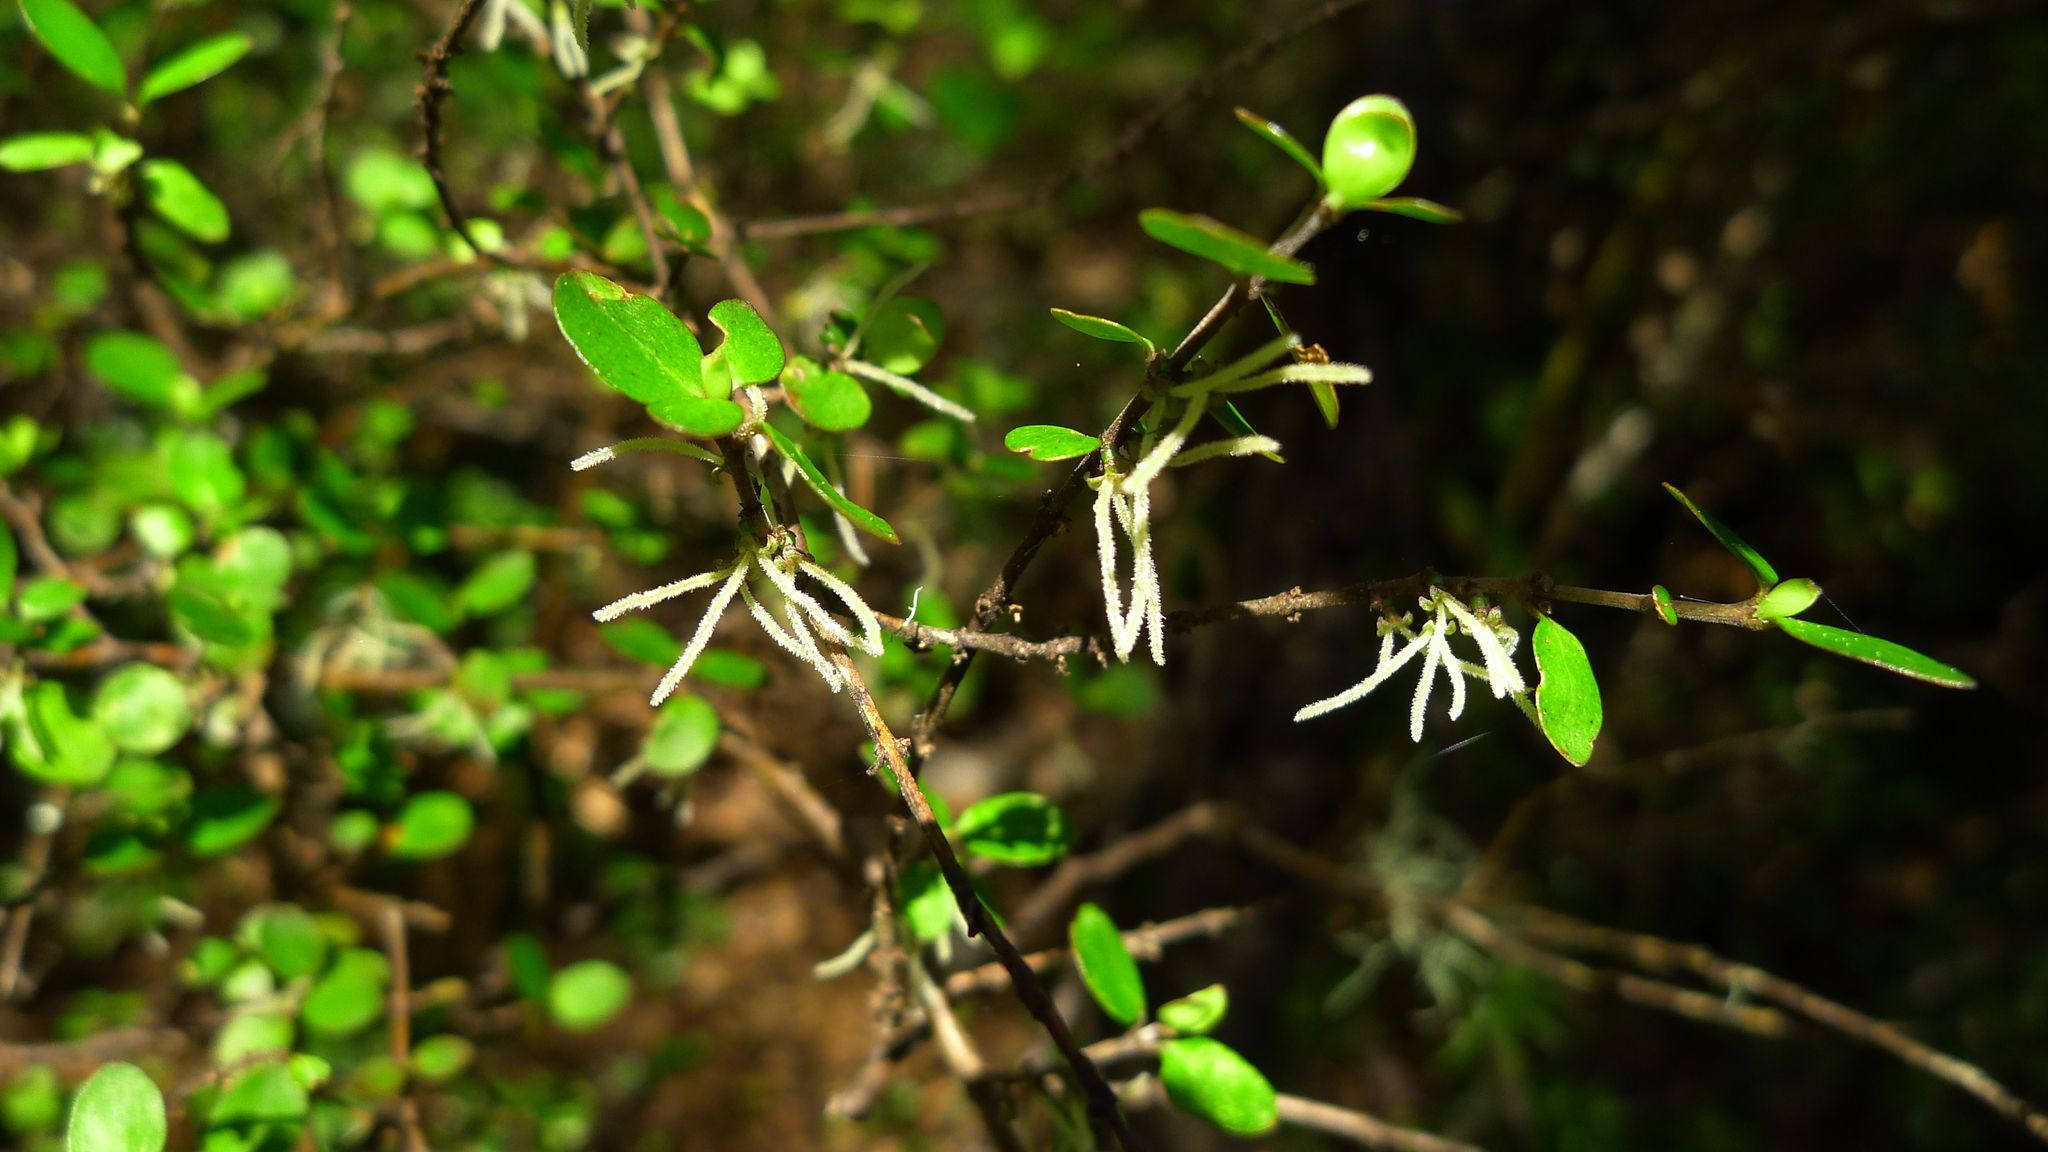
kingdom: Plantae
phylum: Tracheophyta
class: Magnoliopsida
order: Gentianales
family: Rubiaceae
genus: Coprosma
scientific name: Coprosma rhamnoides
